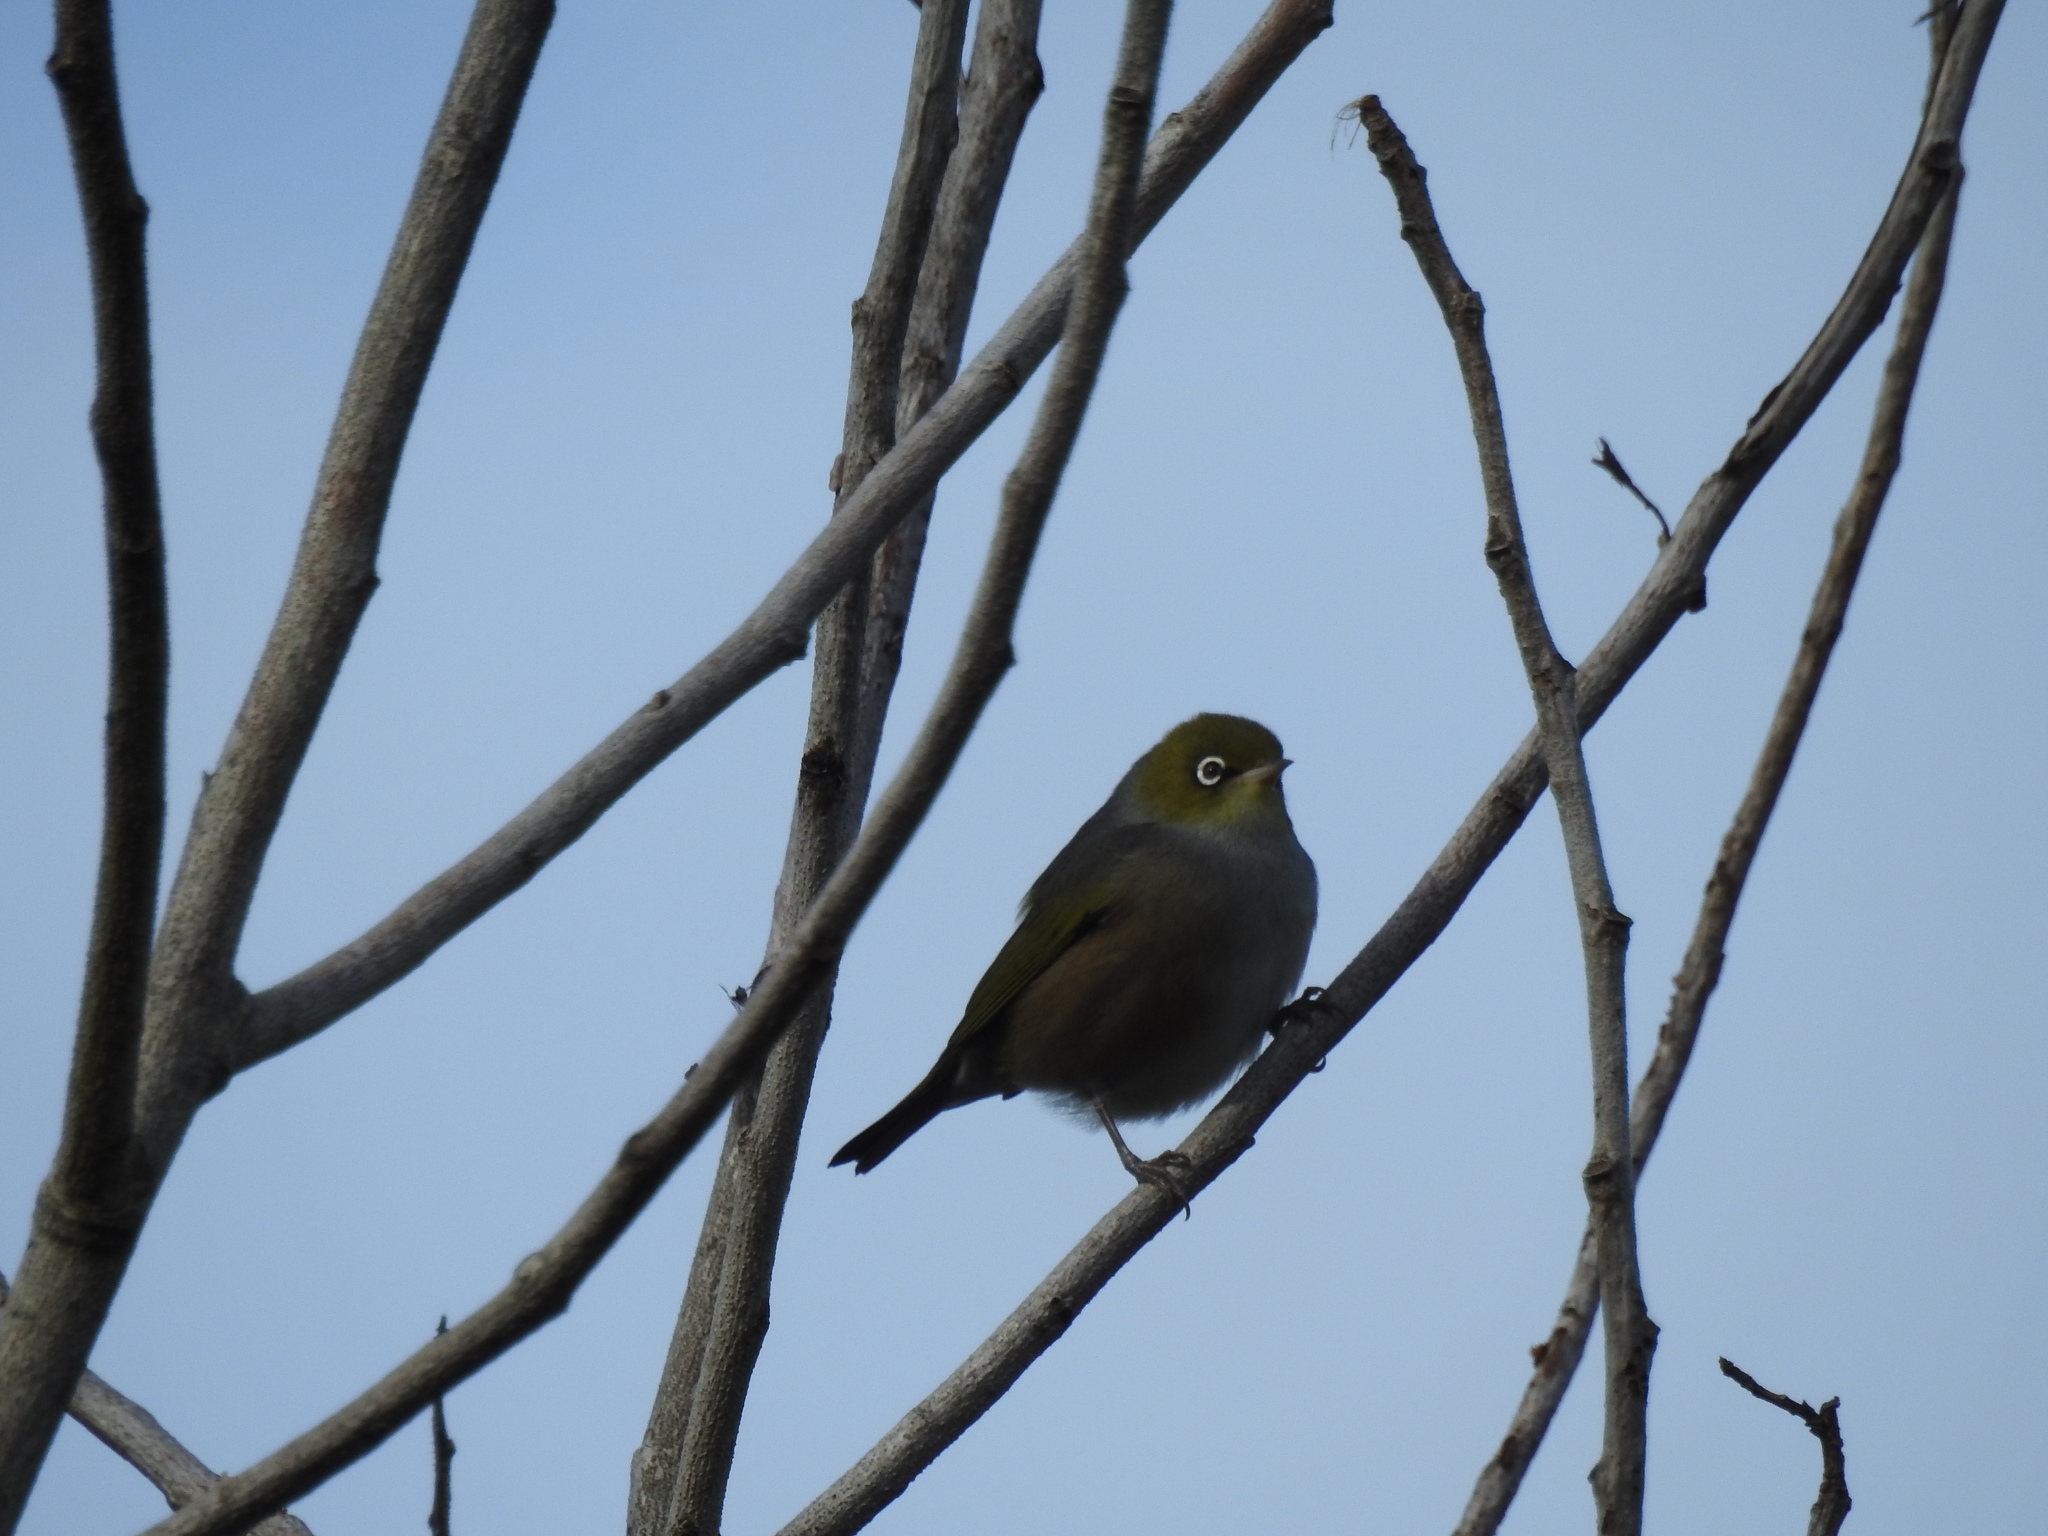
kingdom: Animalia
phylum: Chordata
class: Aves
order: Passeriformes
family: Zosteropidae
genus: Zosterops
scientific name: Zosterops lateralis
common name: Silvereye
